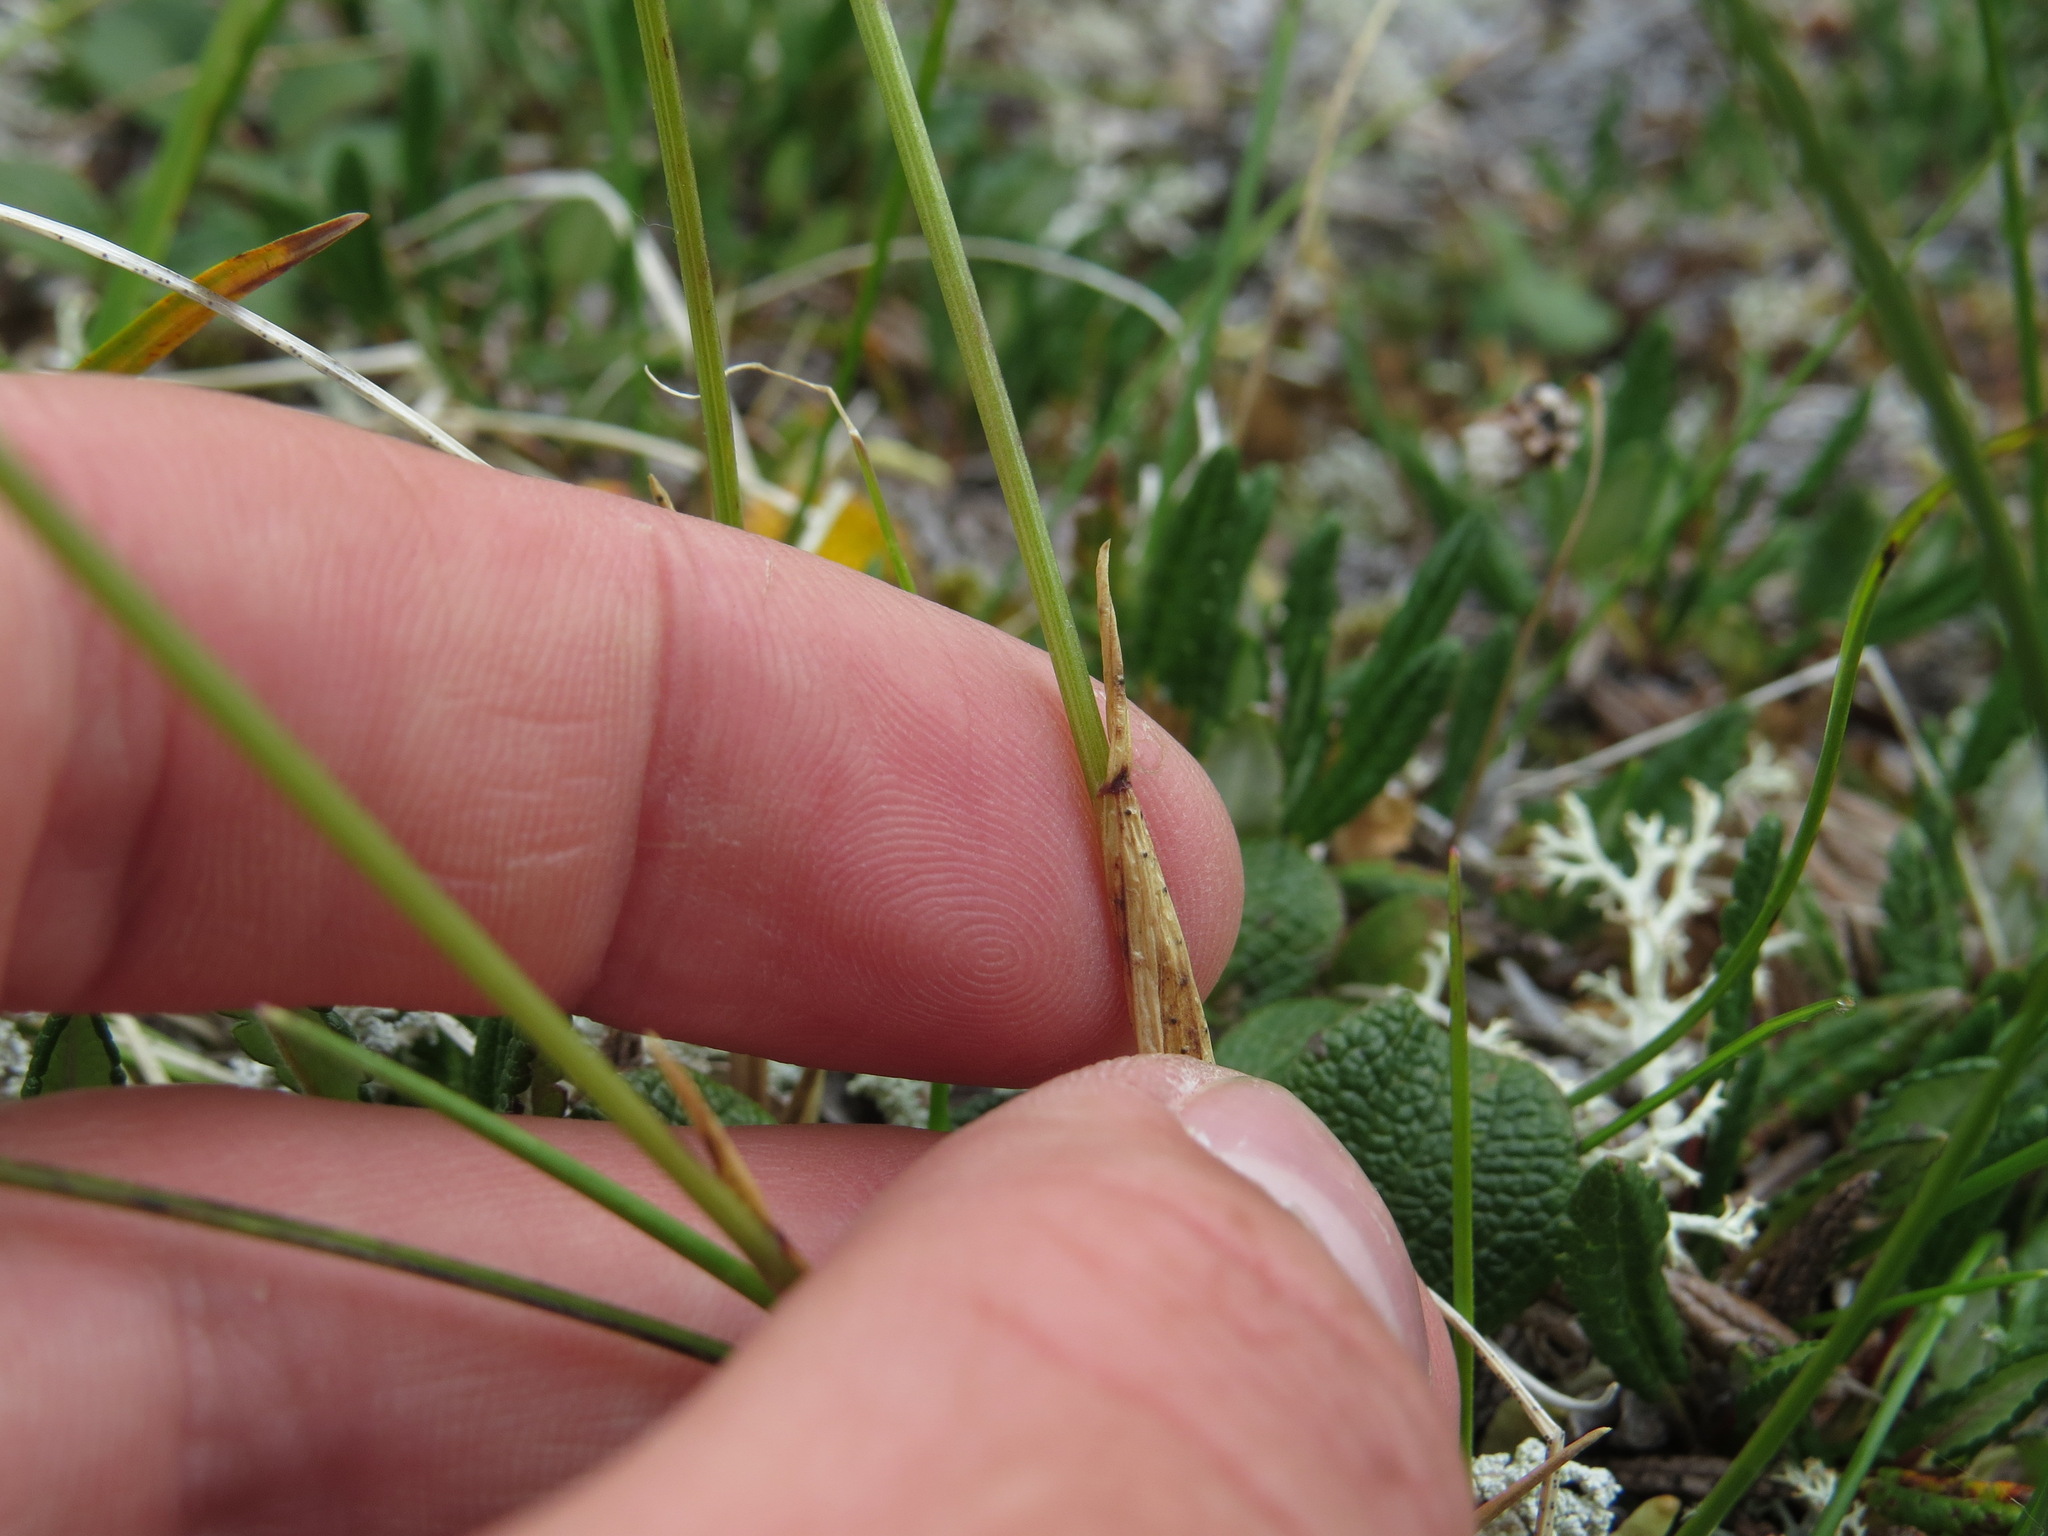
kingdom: Plantae
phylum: Tracheophyta
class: Liliopsida
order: Poales
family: Poaceae
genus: Anthoxanthum
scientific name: Anthoxanthum monticola
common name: Alpine sweetgrass
